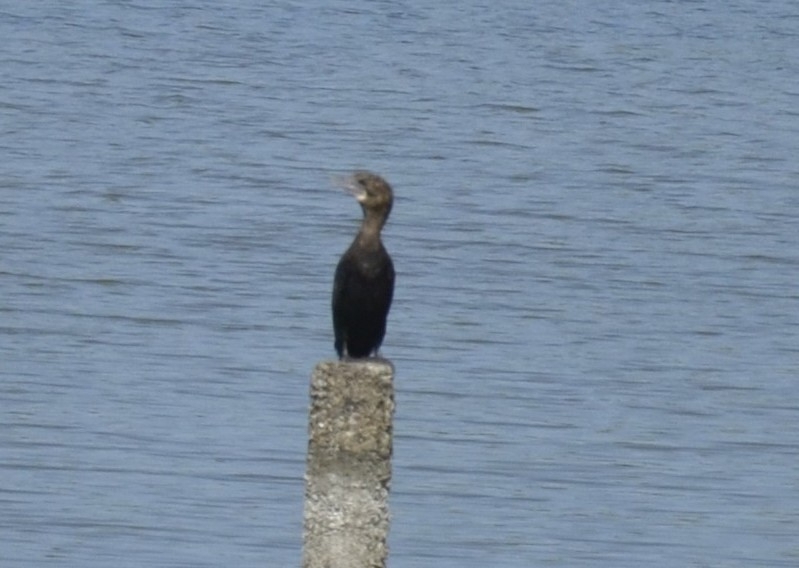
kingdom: Animalia
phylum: Chordata
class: Aves
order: Suliformes
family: Phalacrocoracidae
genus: Microcarbo
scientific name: Microcarbo niger
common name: Little cormorant
